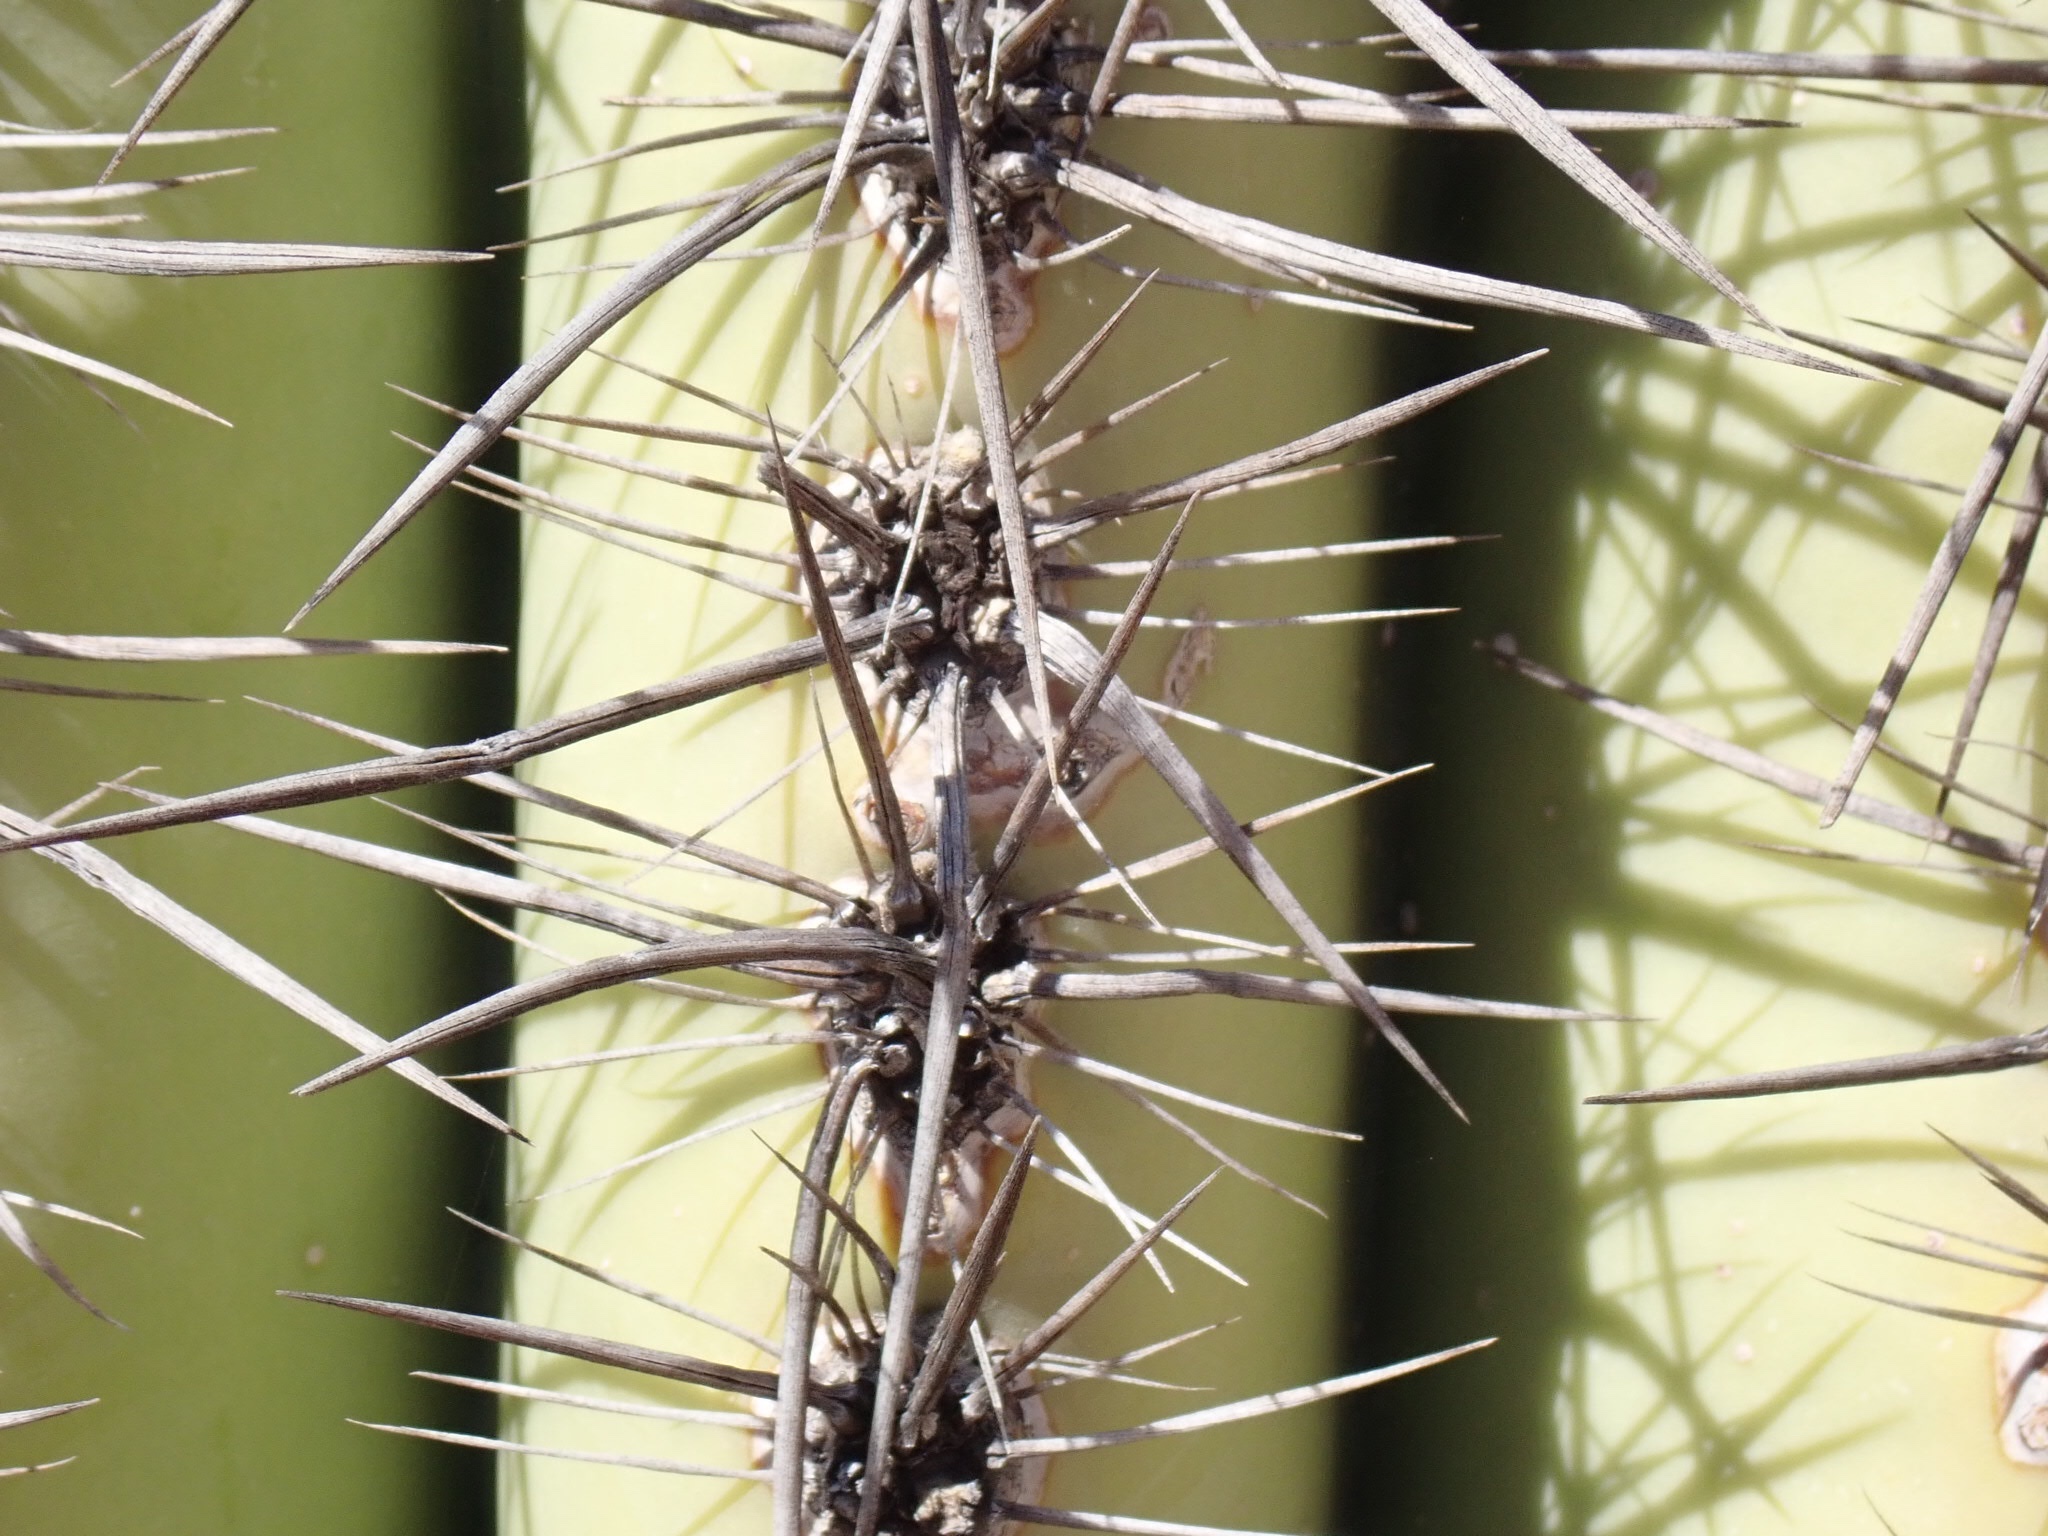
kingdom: Plantae
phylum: Tracheophyta
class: Magnoliopsida
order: Caryophyllales
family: Cactaceae
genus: Carnegiea
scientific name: Carnegiea gigantea
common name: Saguaro
